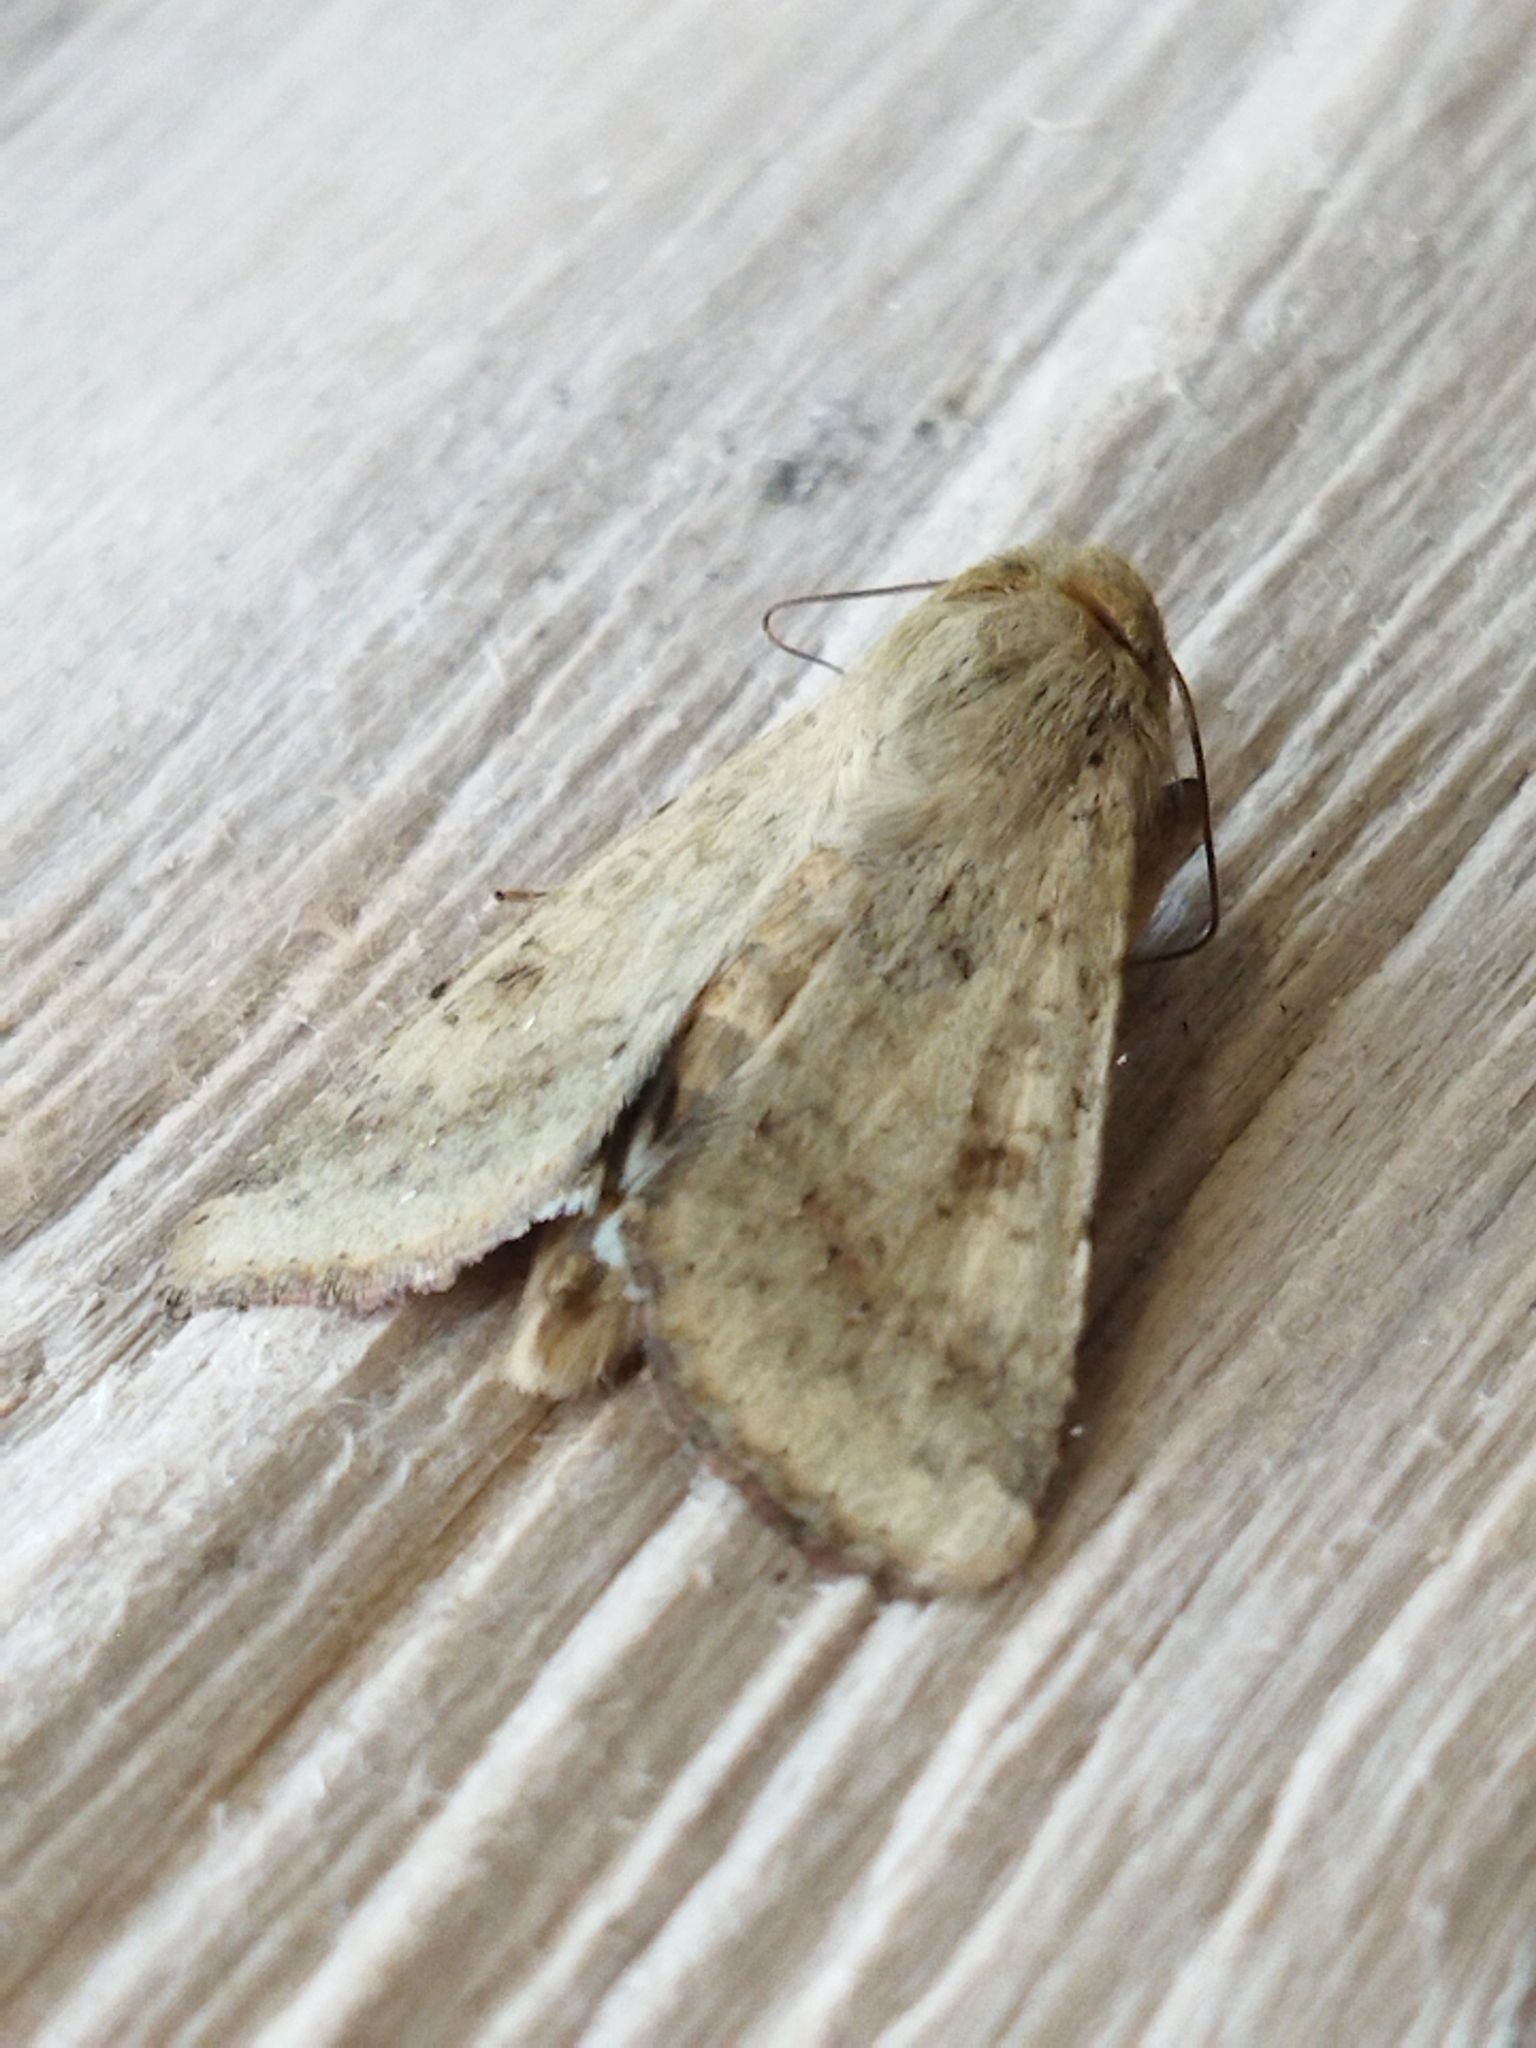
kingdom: Animalia
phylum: Arthropoda
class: Insecta
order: Lepidoptera
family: Noctuidae
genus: Helicoverpa
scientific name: Helicoverpa armigera
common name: Cotton bollworm
